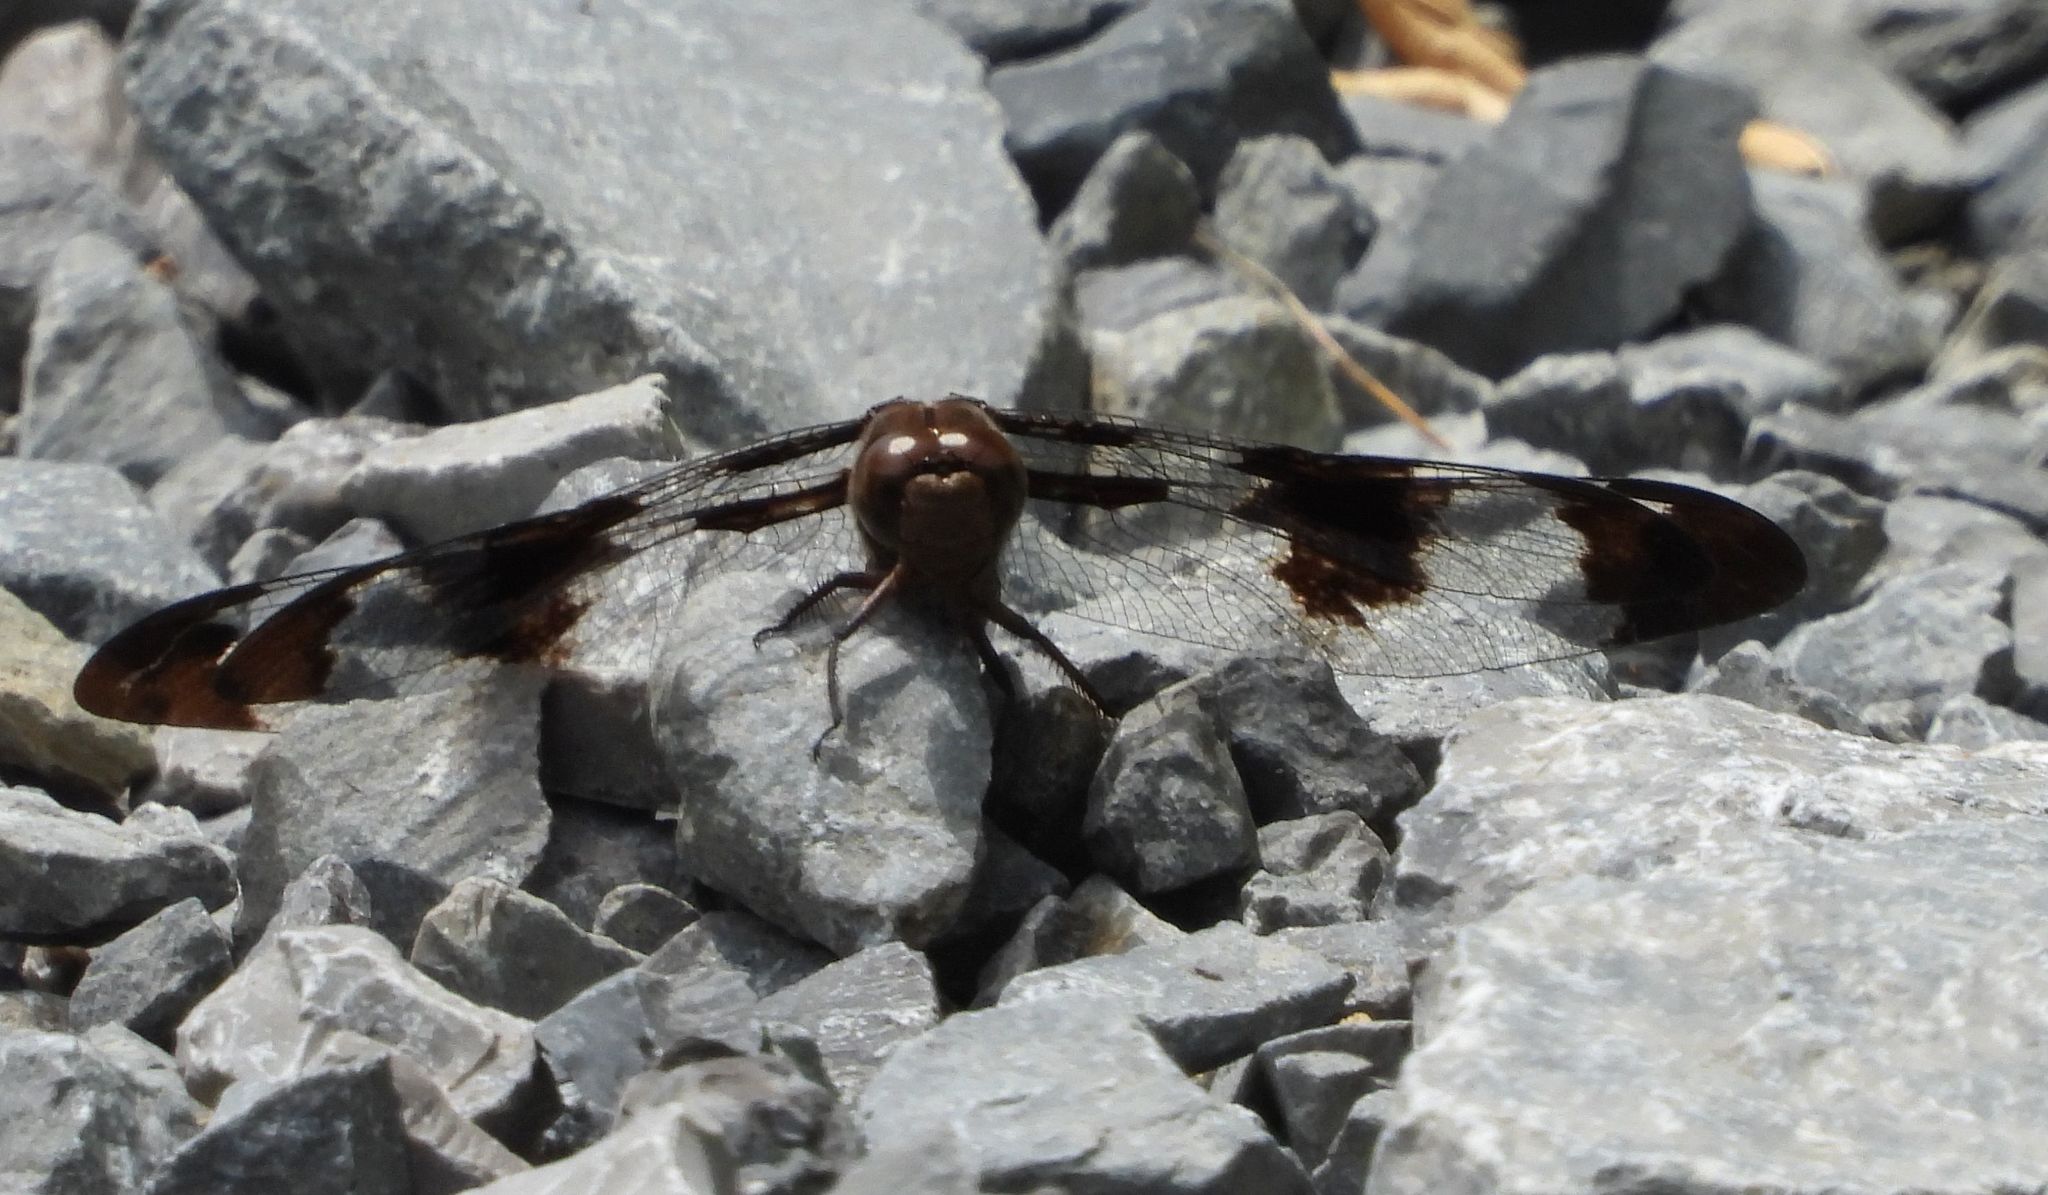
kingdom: Animalia
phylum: Arthropoda
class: Insecta
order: Odonata
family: Libellulidae
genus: Plathemis
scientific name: Plathemis lydia
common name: Common whitetail
